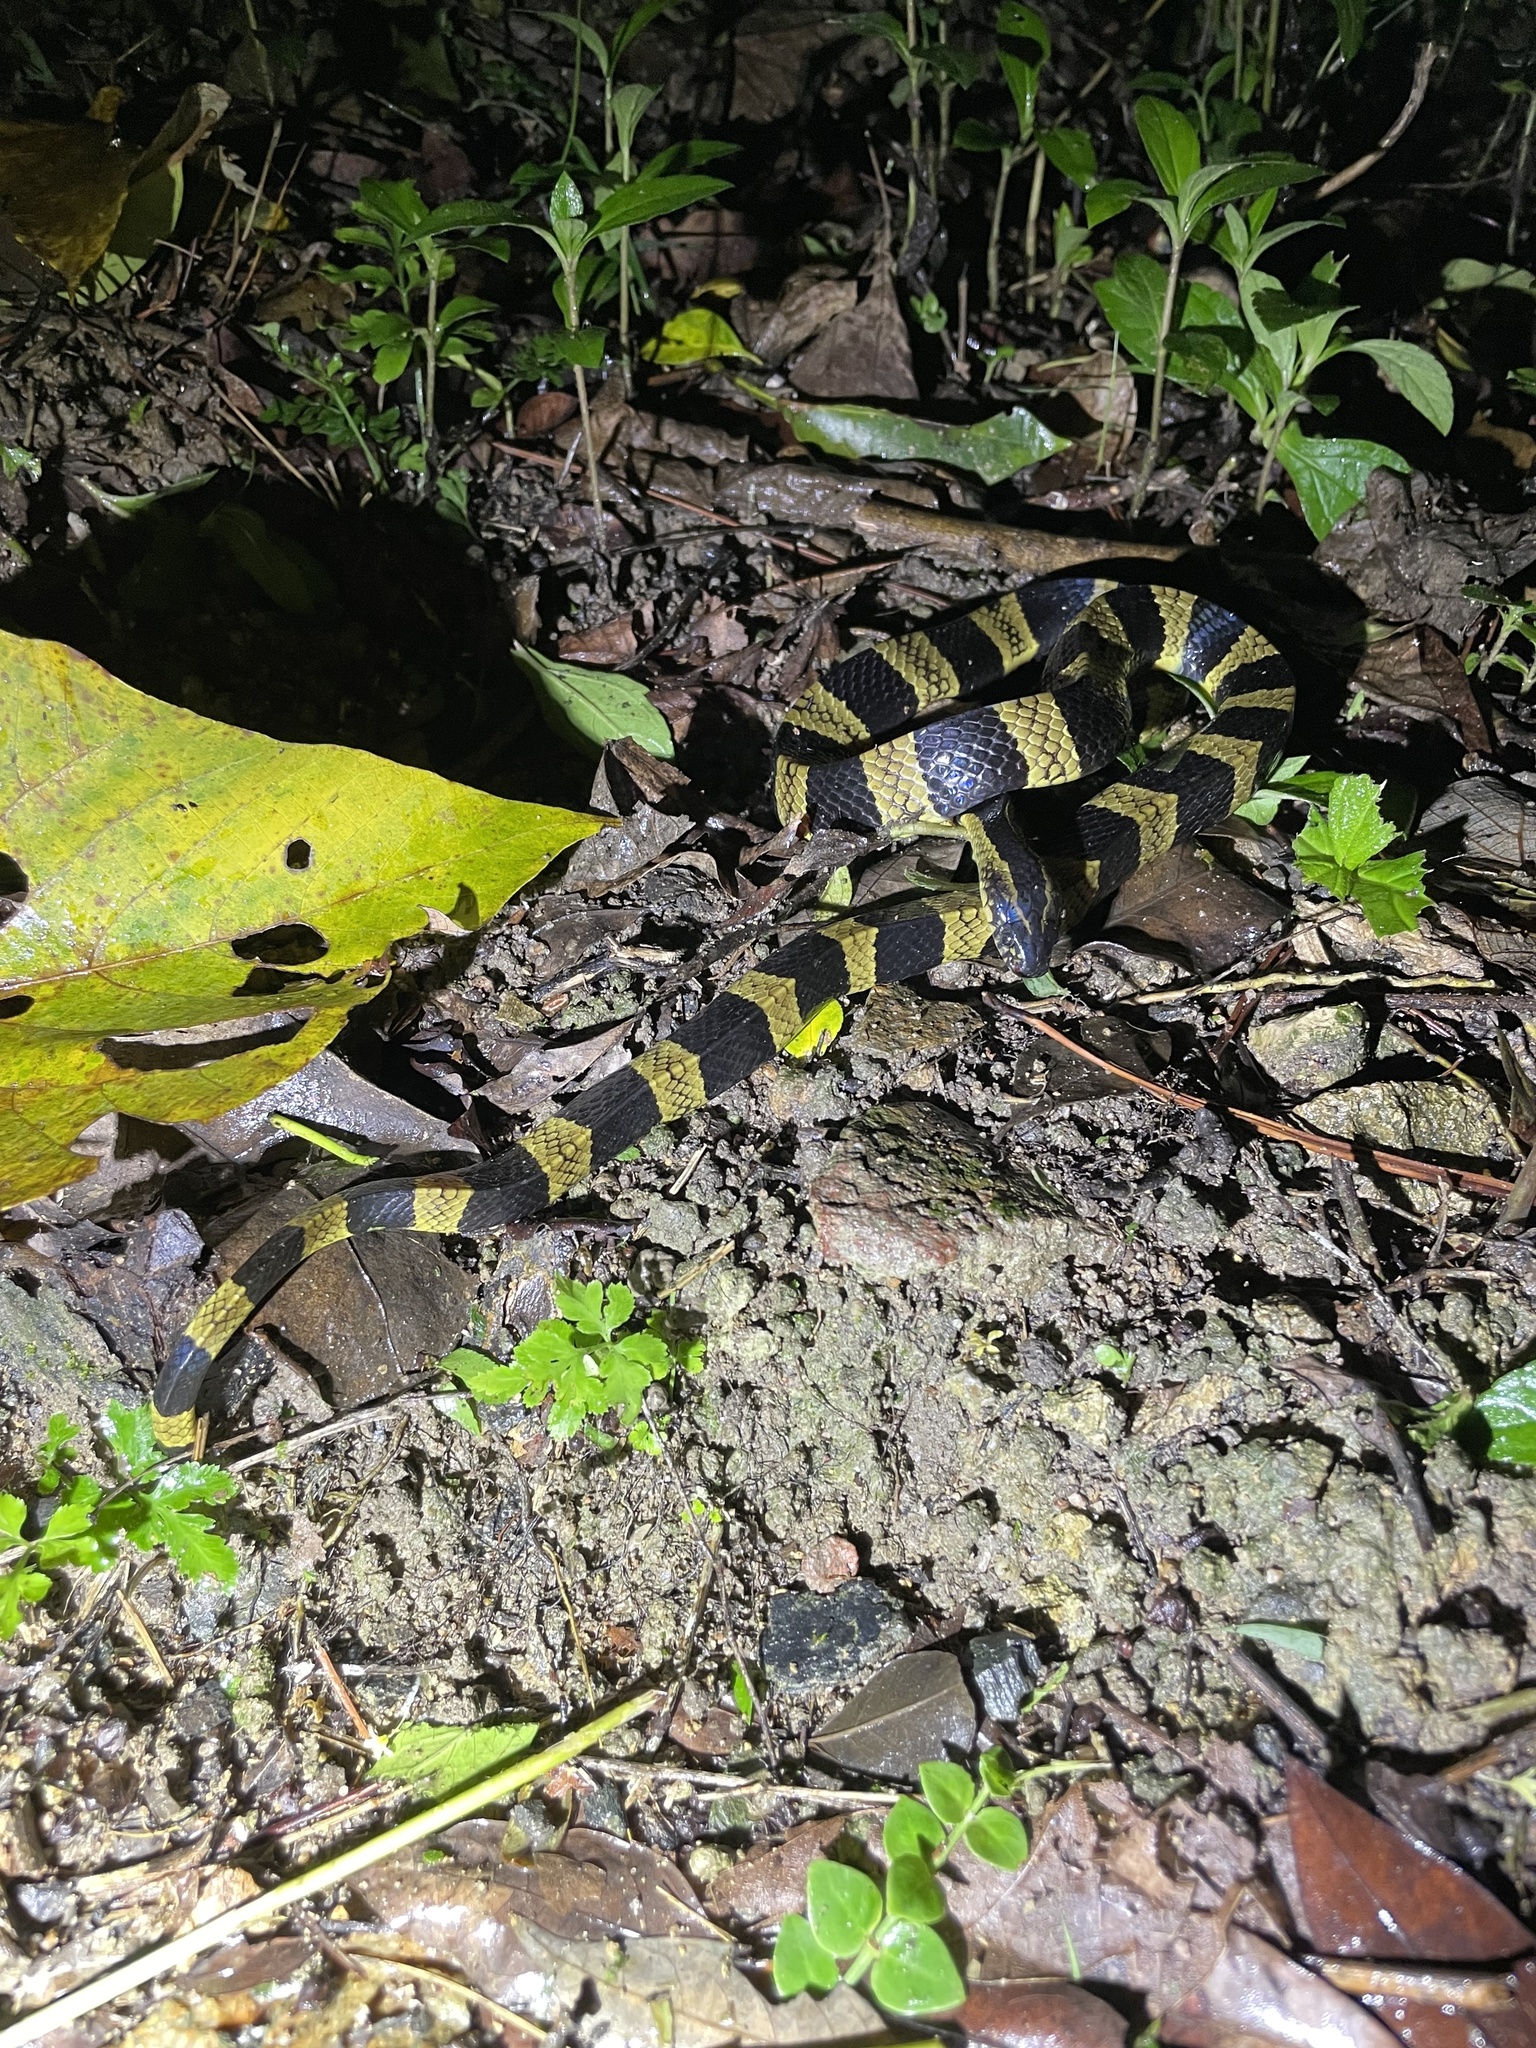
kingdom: Animalia
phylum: Chordata
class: Squamata
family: Elapidae
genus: Bungarus
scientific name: Bungarus fasciatus
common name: Banded krait
